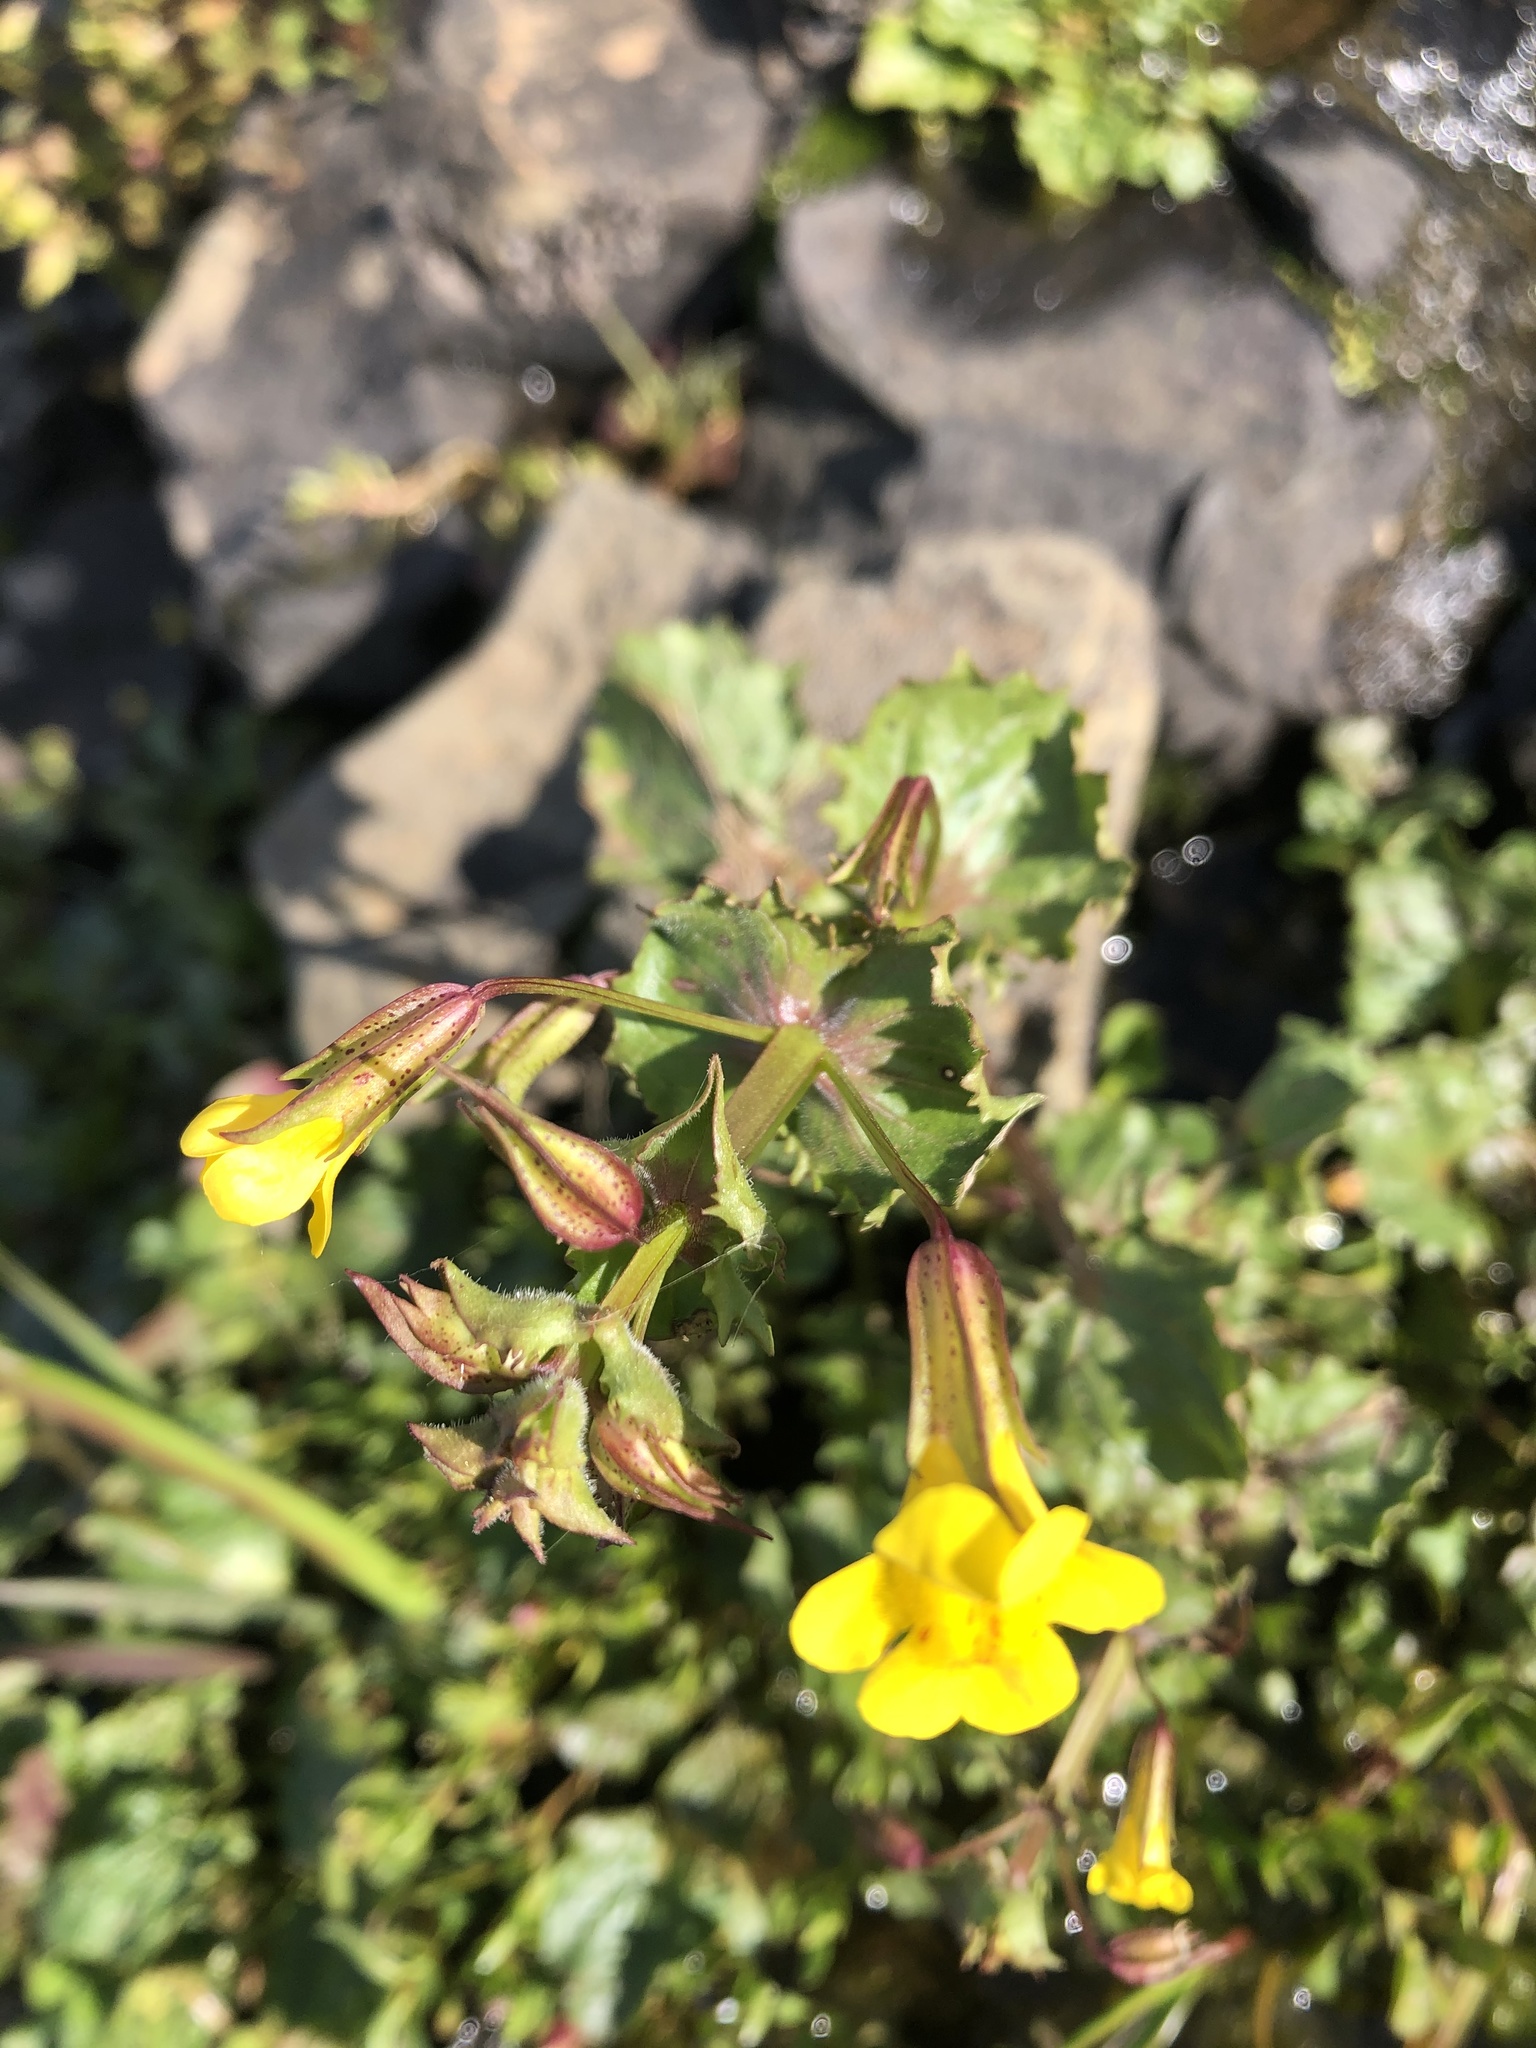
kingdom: Plantae
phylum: Tracheophyta
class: Magnoliopsida
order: Lamiales
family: Phrymaceae
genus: Erythranthe
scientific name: Erythranthe nasuta
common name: Sooke monkeyflower
